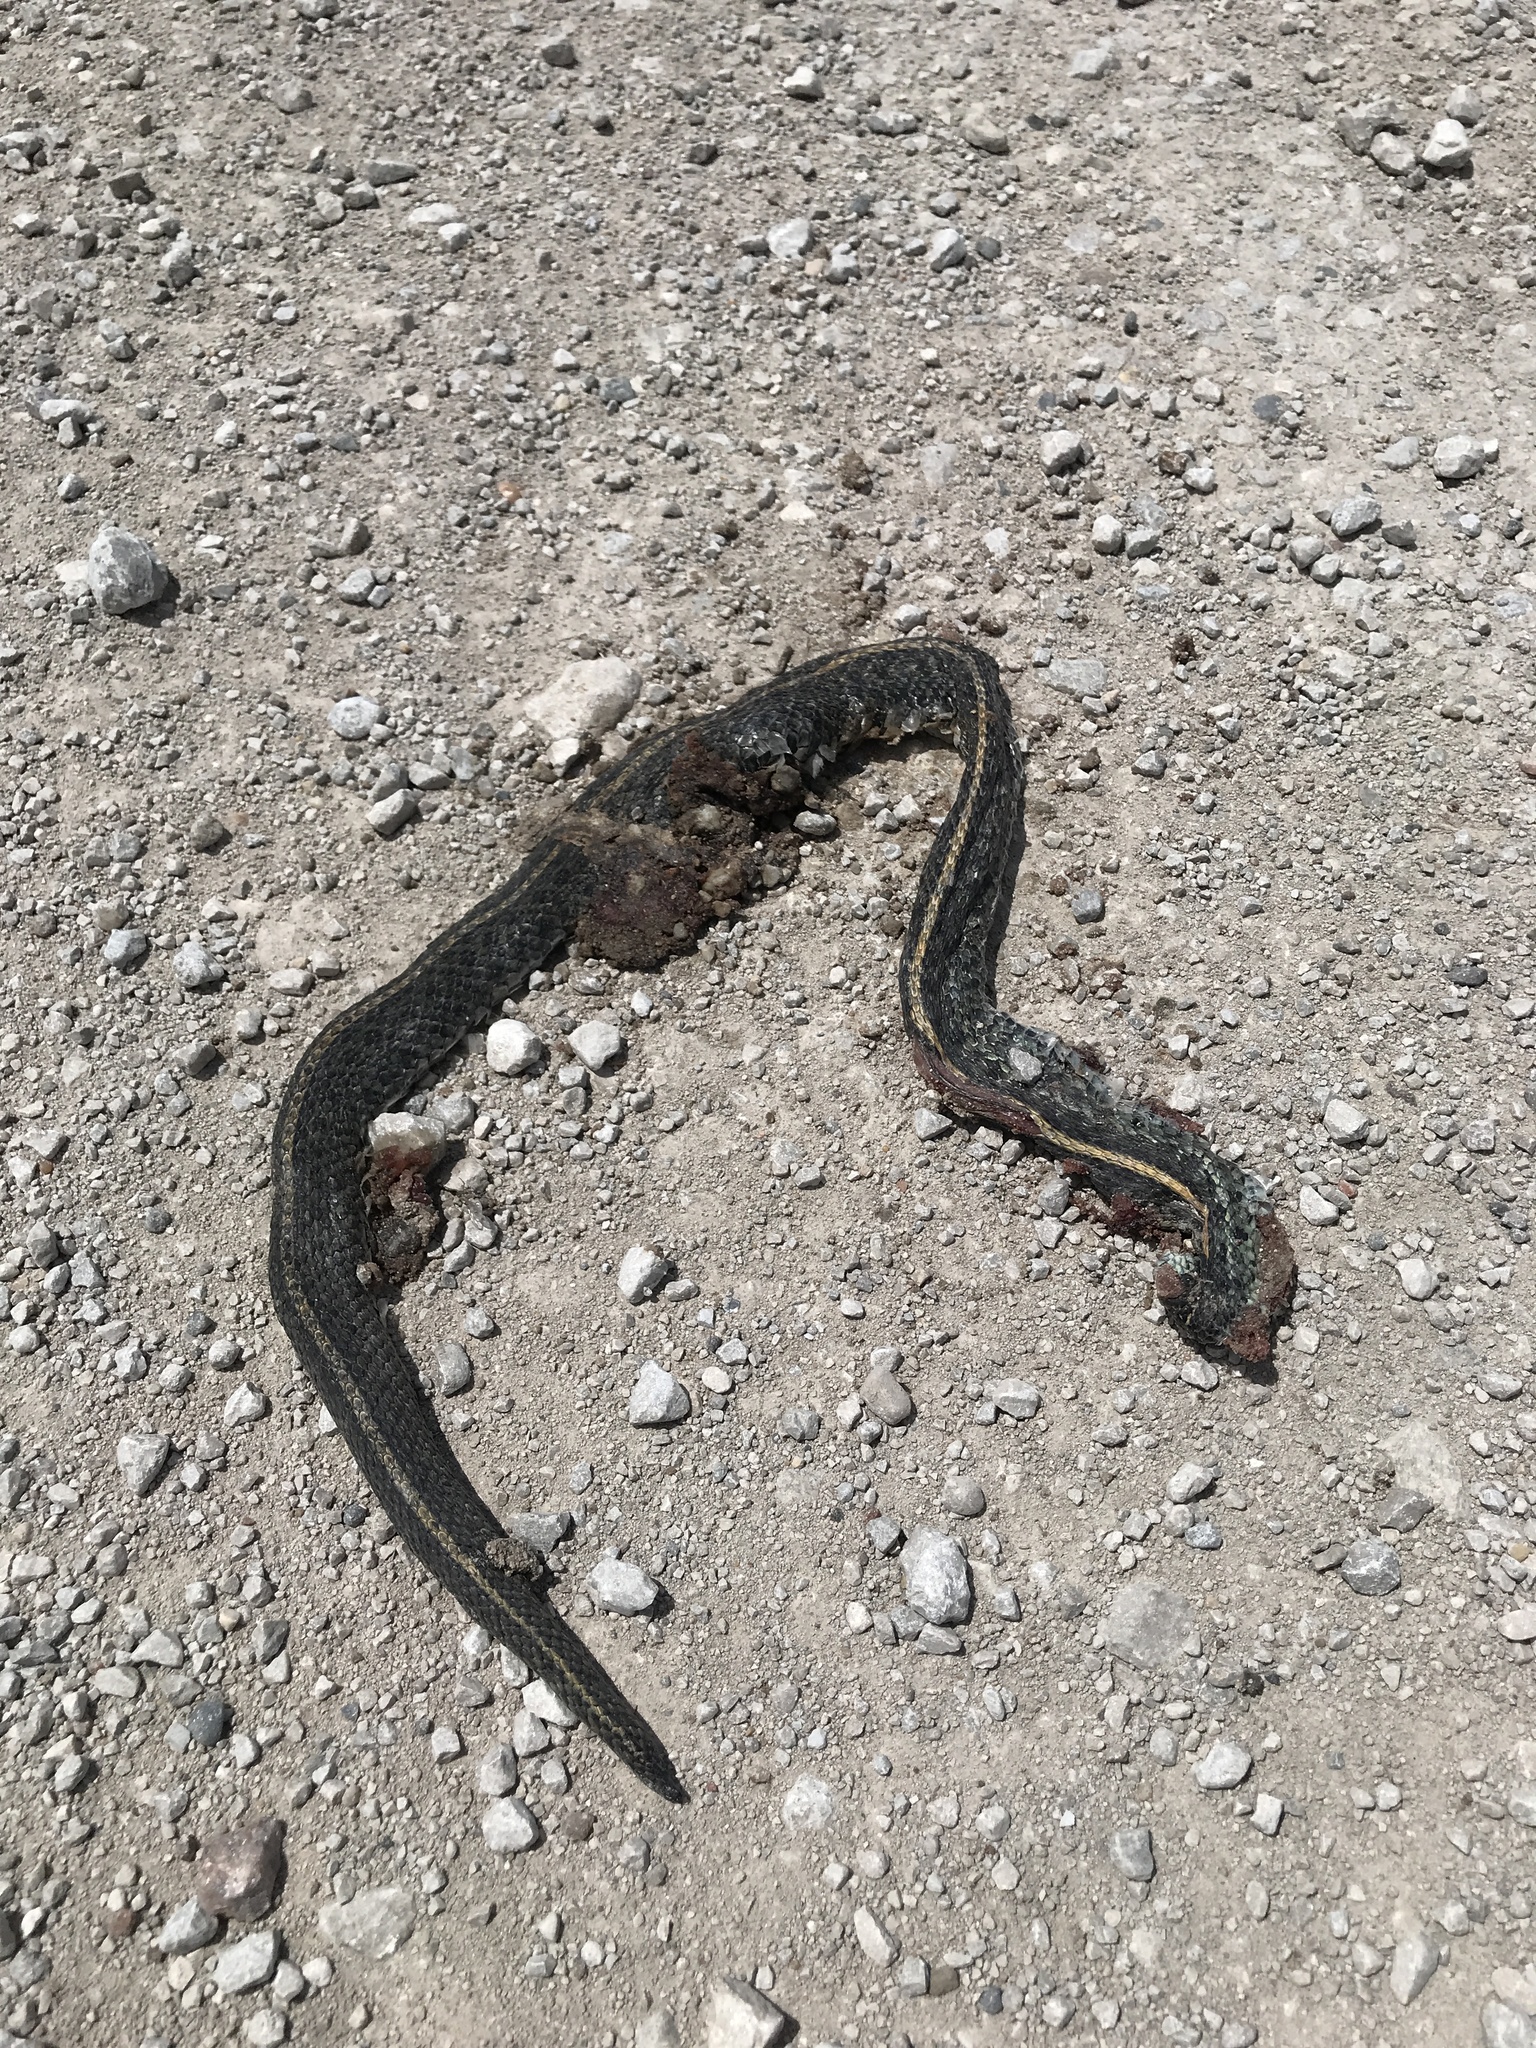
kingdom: Animalia
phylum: Chordata
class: Squamata
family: Colubridae
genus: Thamnophis
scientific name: Thamnophis radix
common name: Plains garter snake
